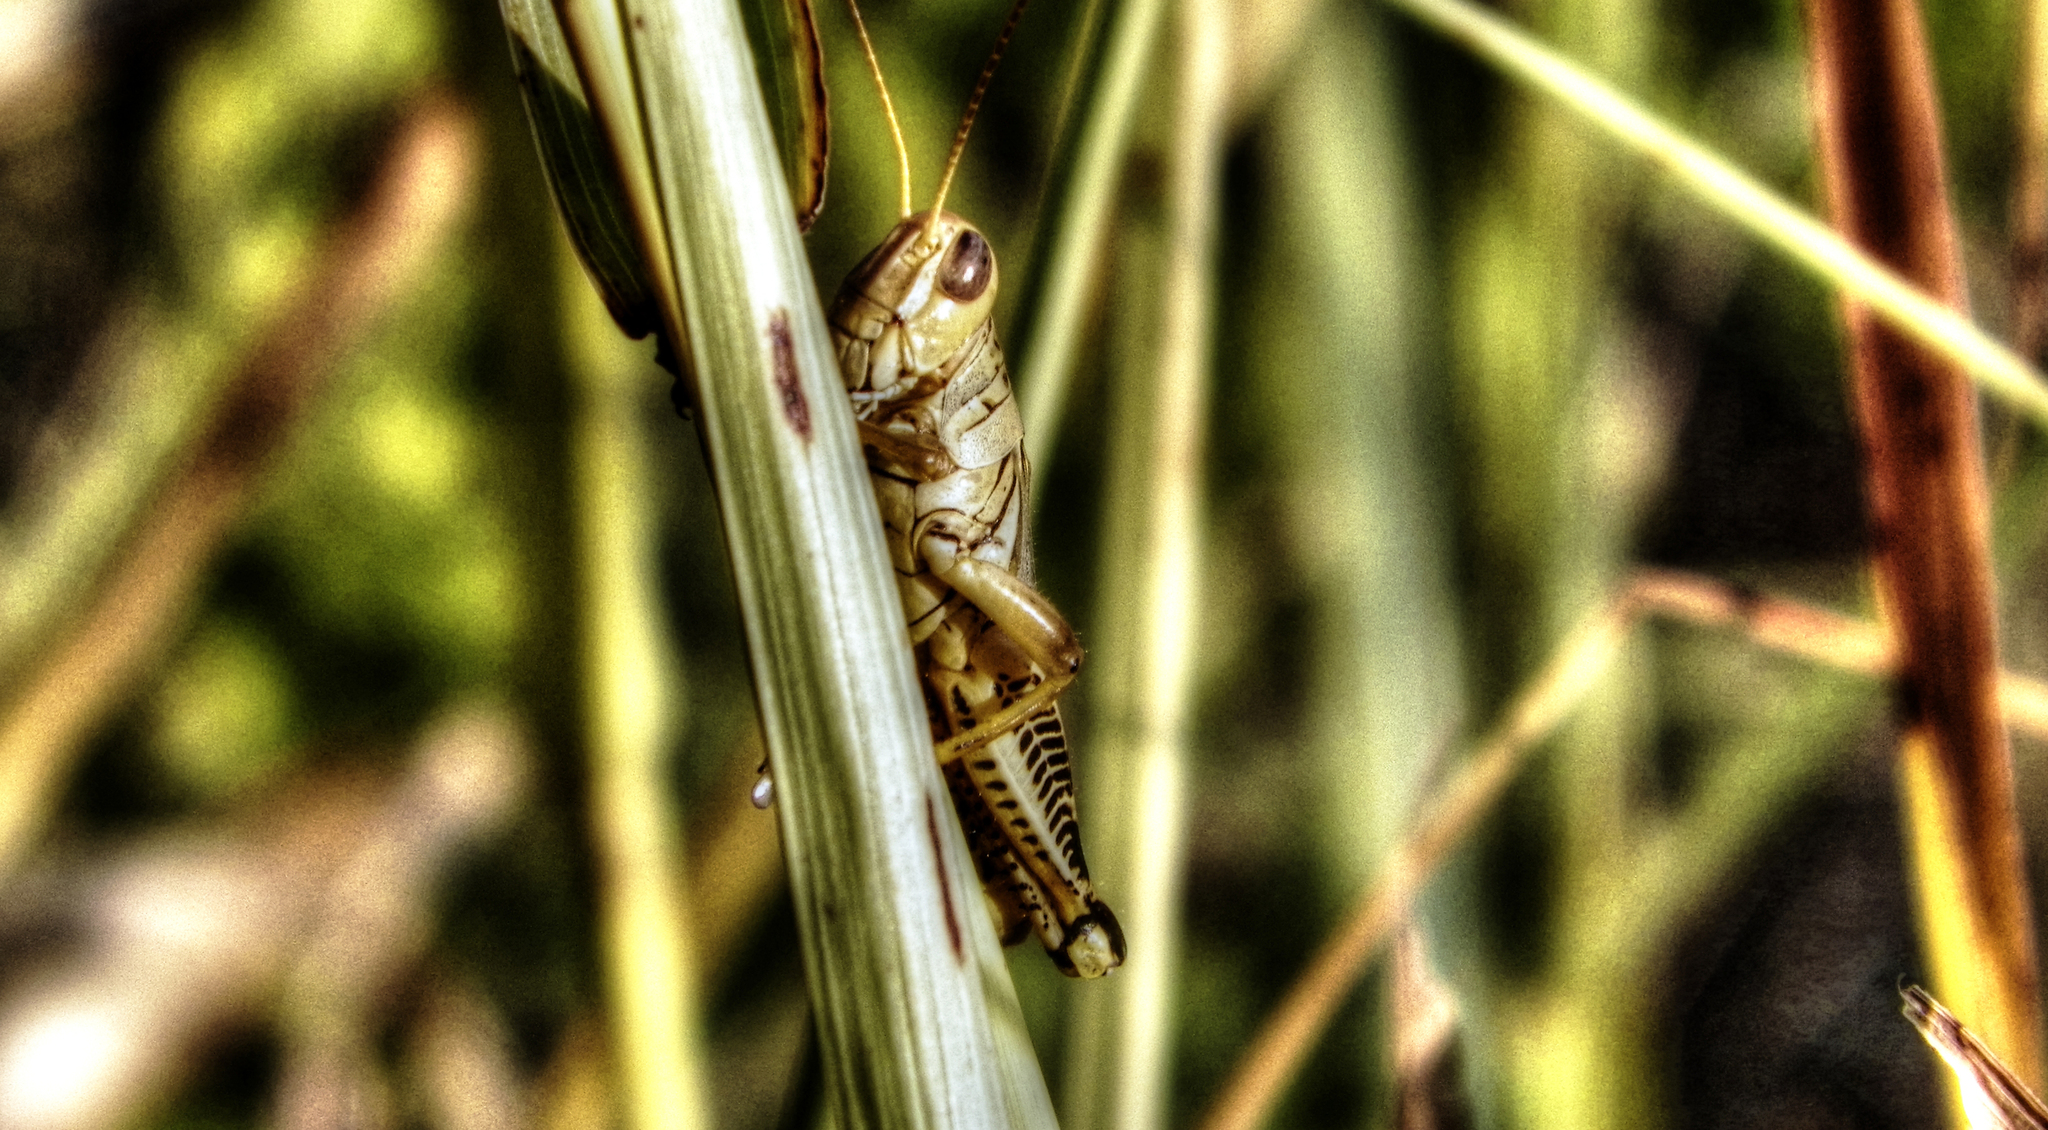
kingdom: Animalia
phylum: Arthropoda
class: Insecta
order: Orthoptera
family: Acrididae
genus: Melanoplus
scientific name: Melanoplus differentialis
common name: Differential grasshopper
